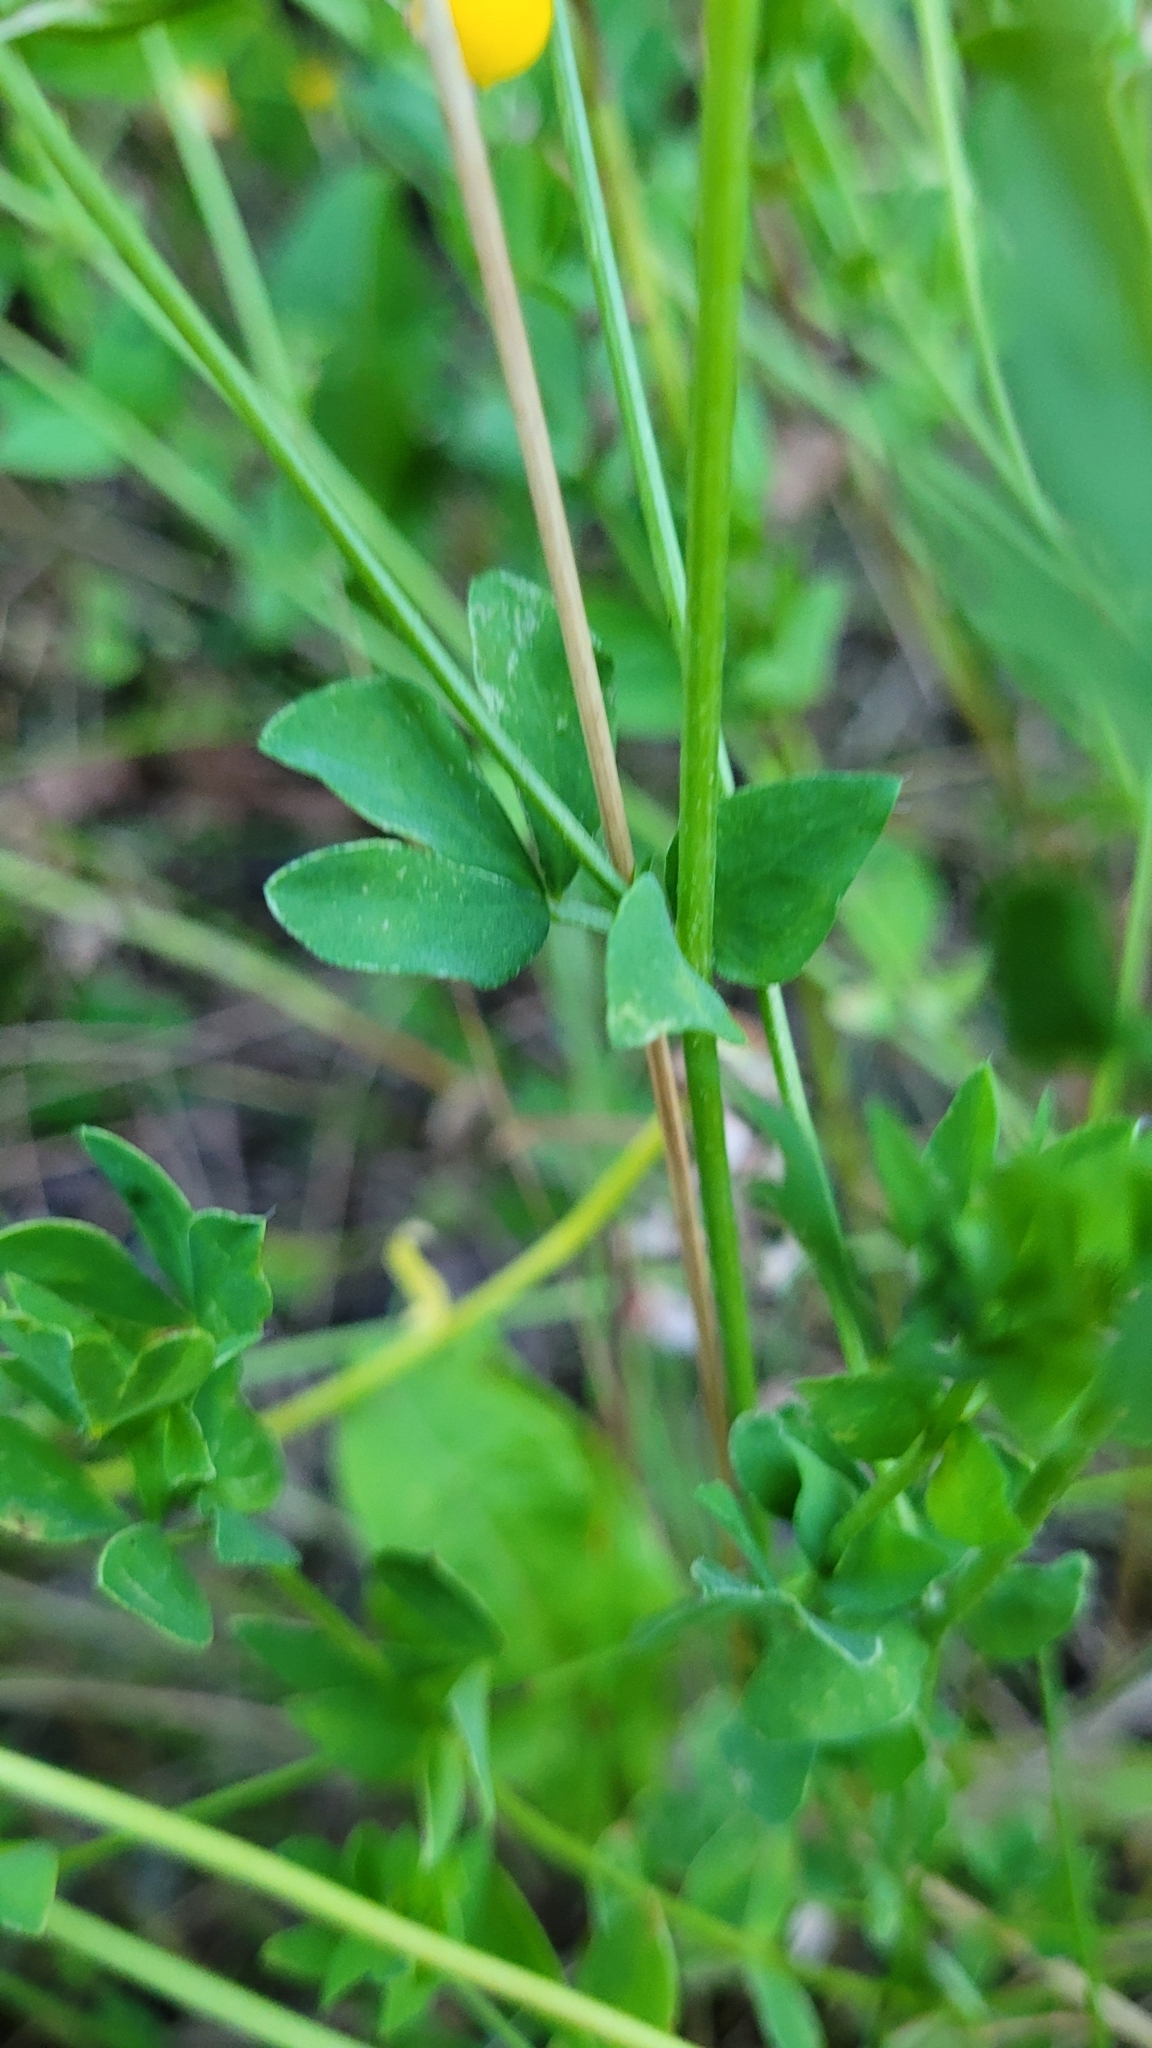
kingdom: Plantae
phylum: Tracheophyta
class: Magnoliopsida
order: Fabales
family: Fabaceae
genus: Lotus
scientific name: Lotus corniculatus
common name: Common bird's-foot-trefoil
